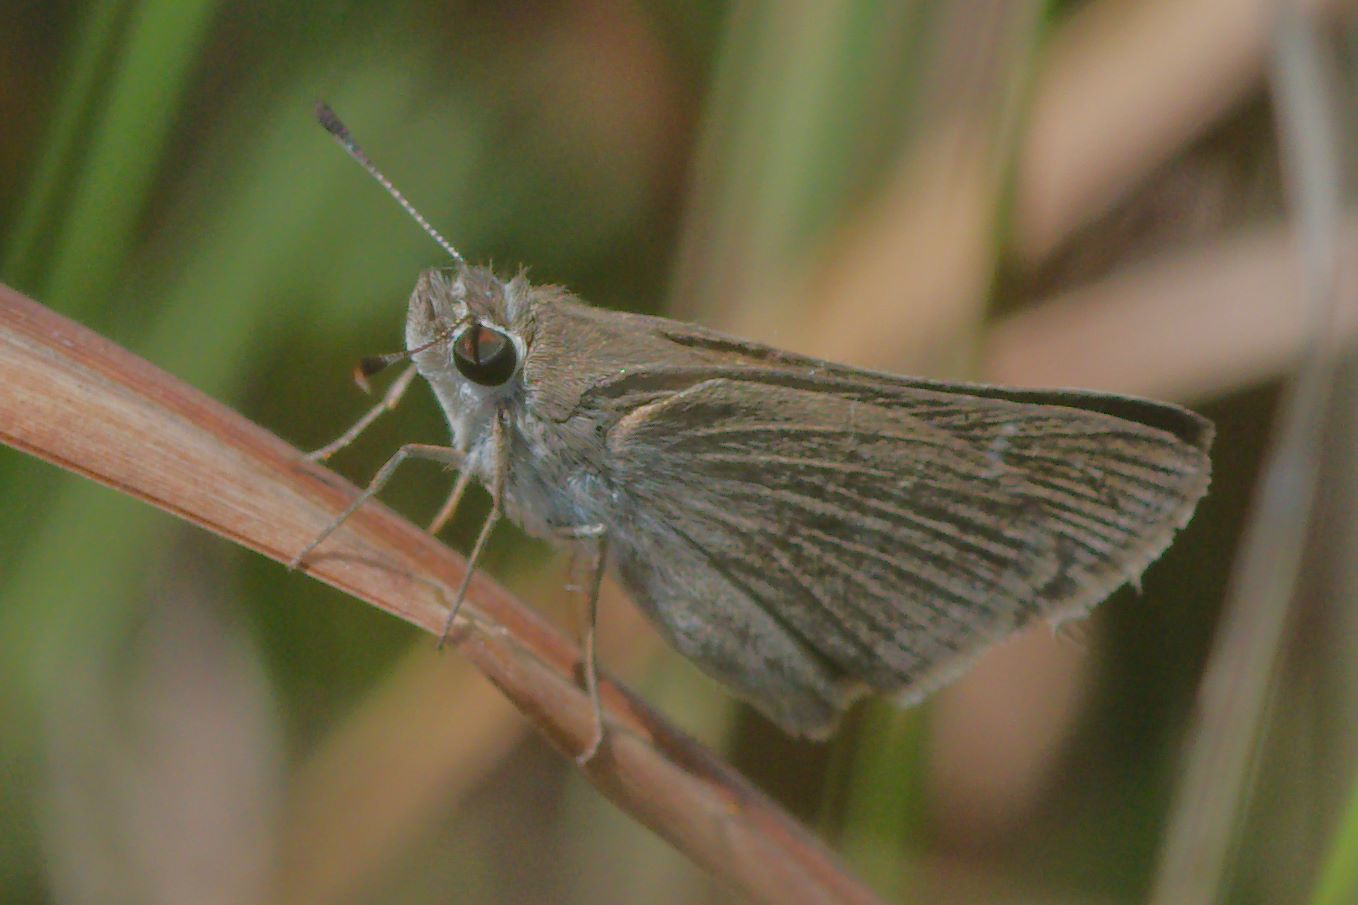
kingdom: Animalia
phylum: Arthropoda
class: Insecta
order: Lepidoptera
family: Hesperiidae
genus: Lerodea
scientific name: Lerodea eufala
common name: Eufala skipper
